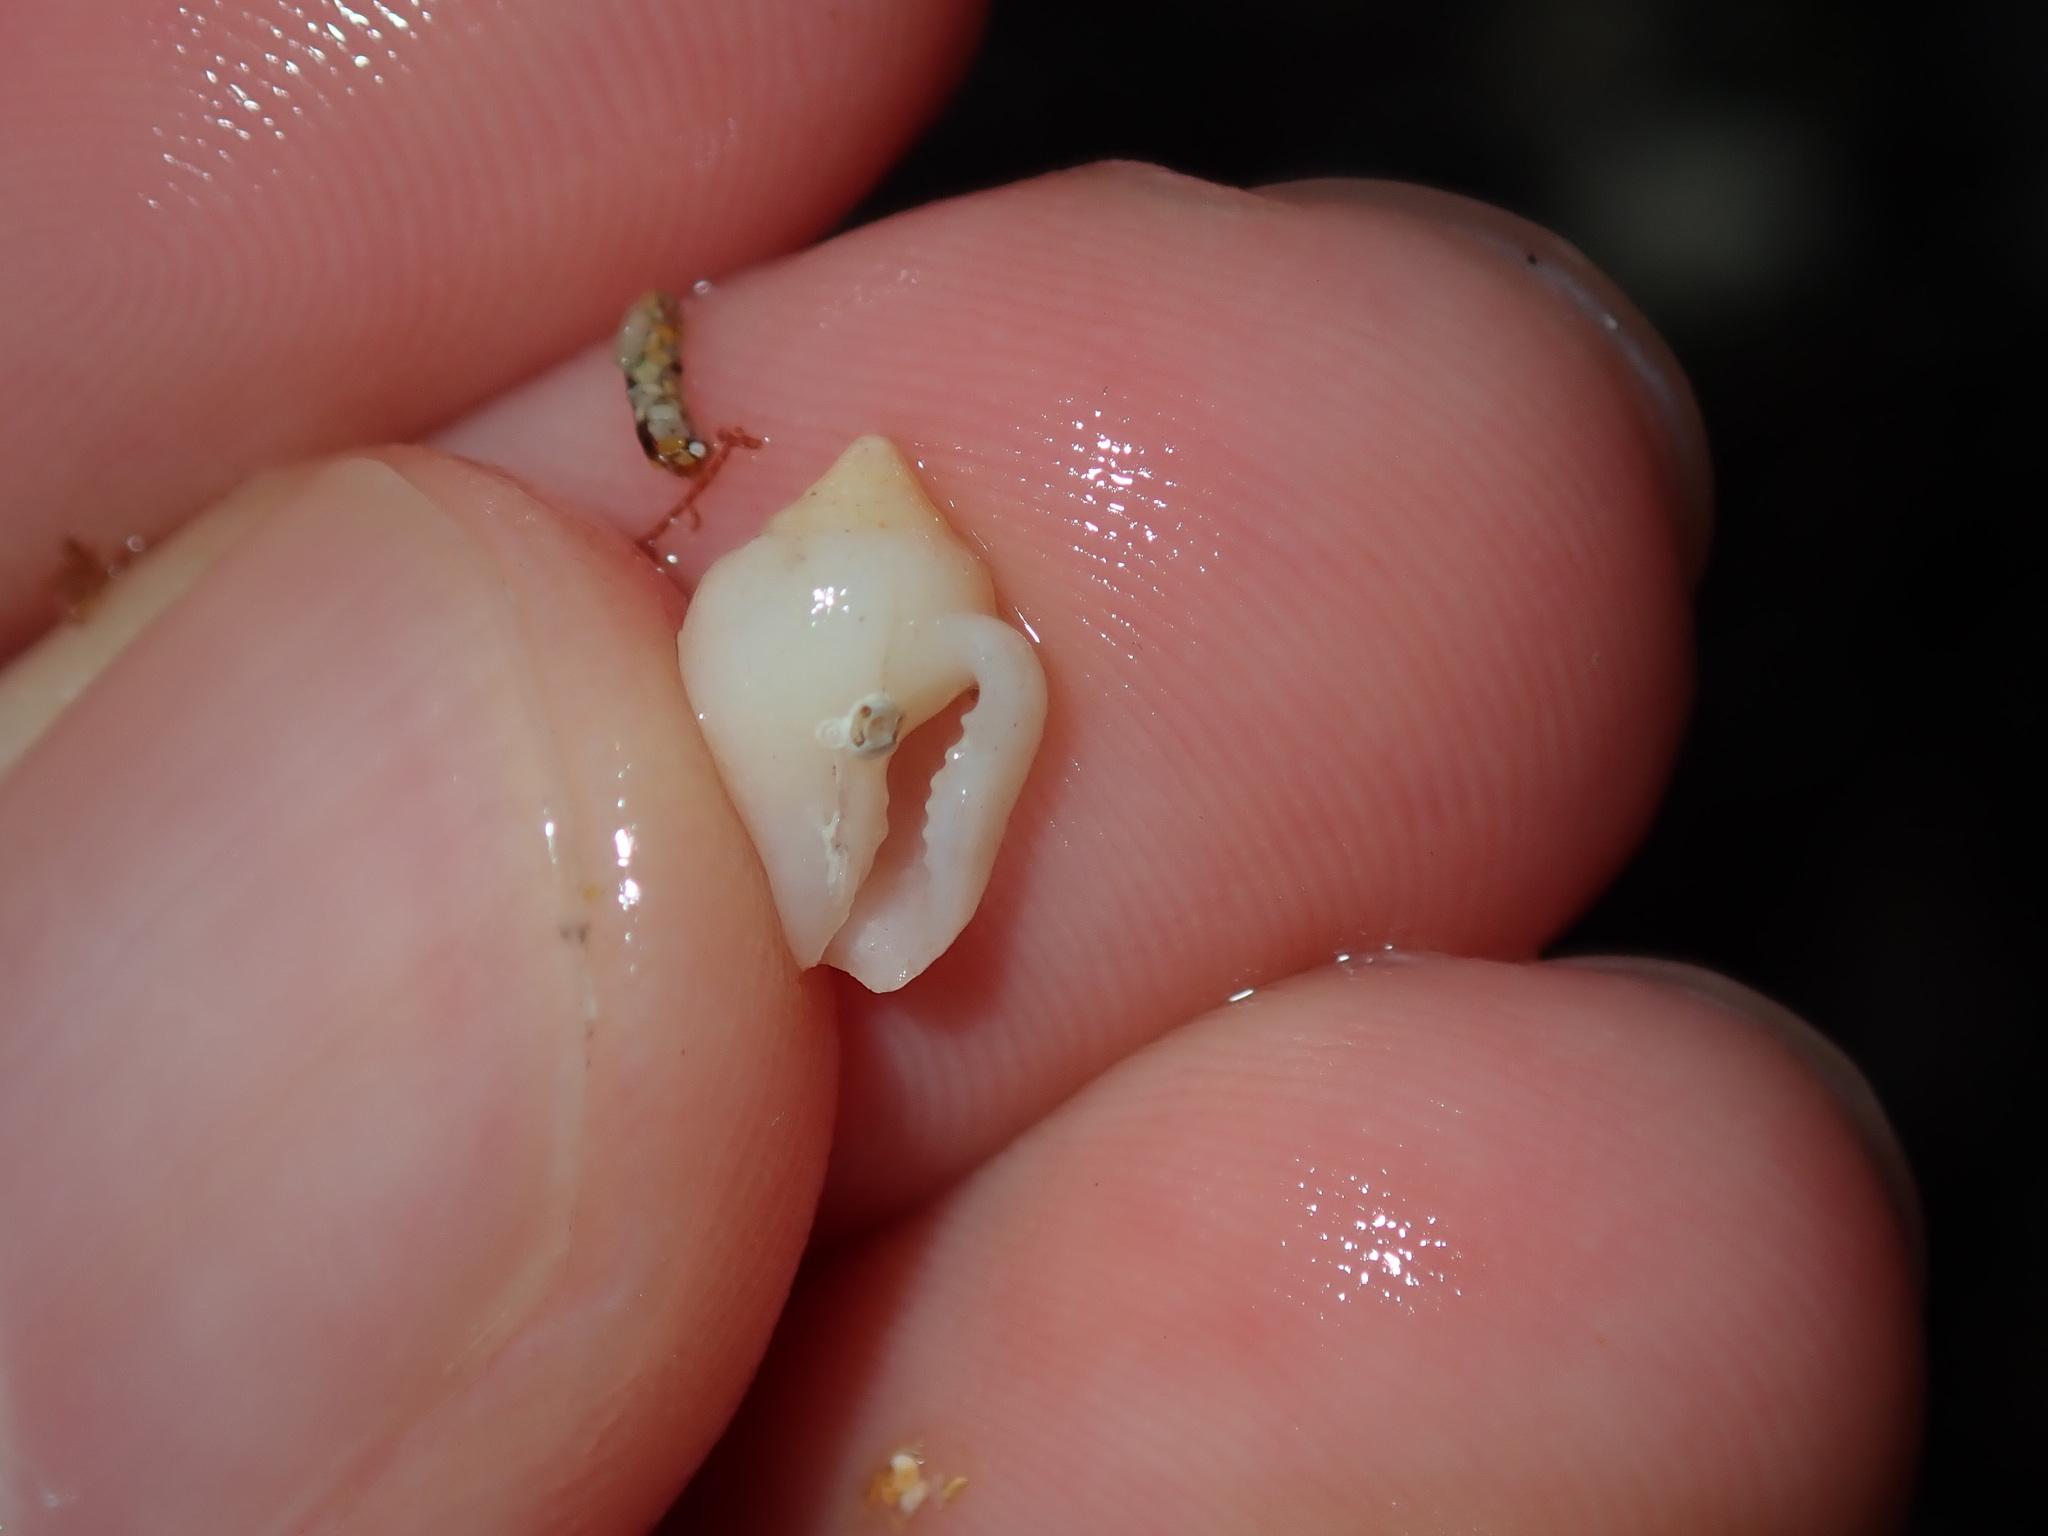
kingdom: Animalia
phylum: Mollusca
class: Gastropoda
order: Neogastropoda
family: Columbellidae
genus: Euplica
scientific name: Euplica scripta
